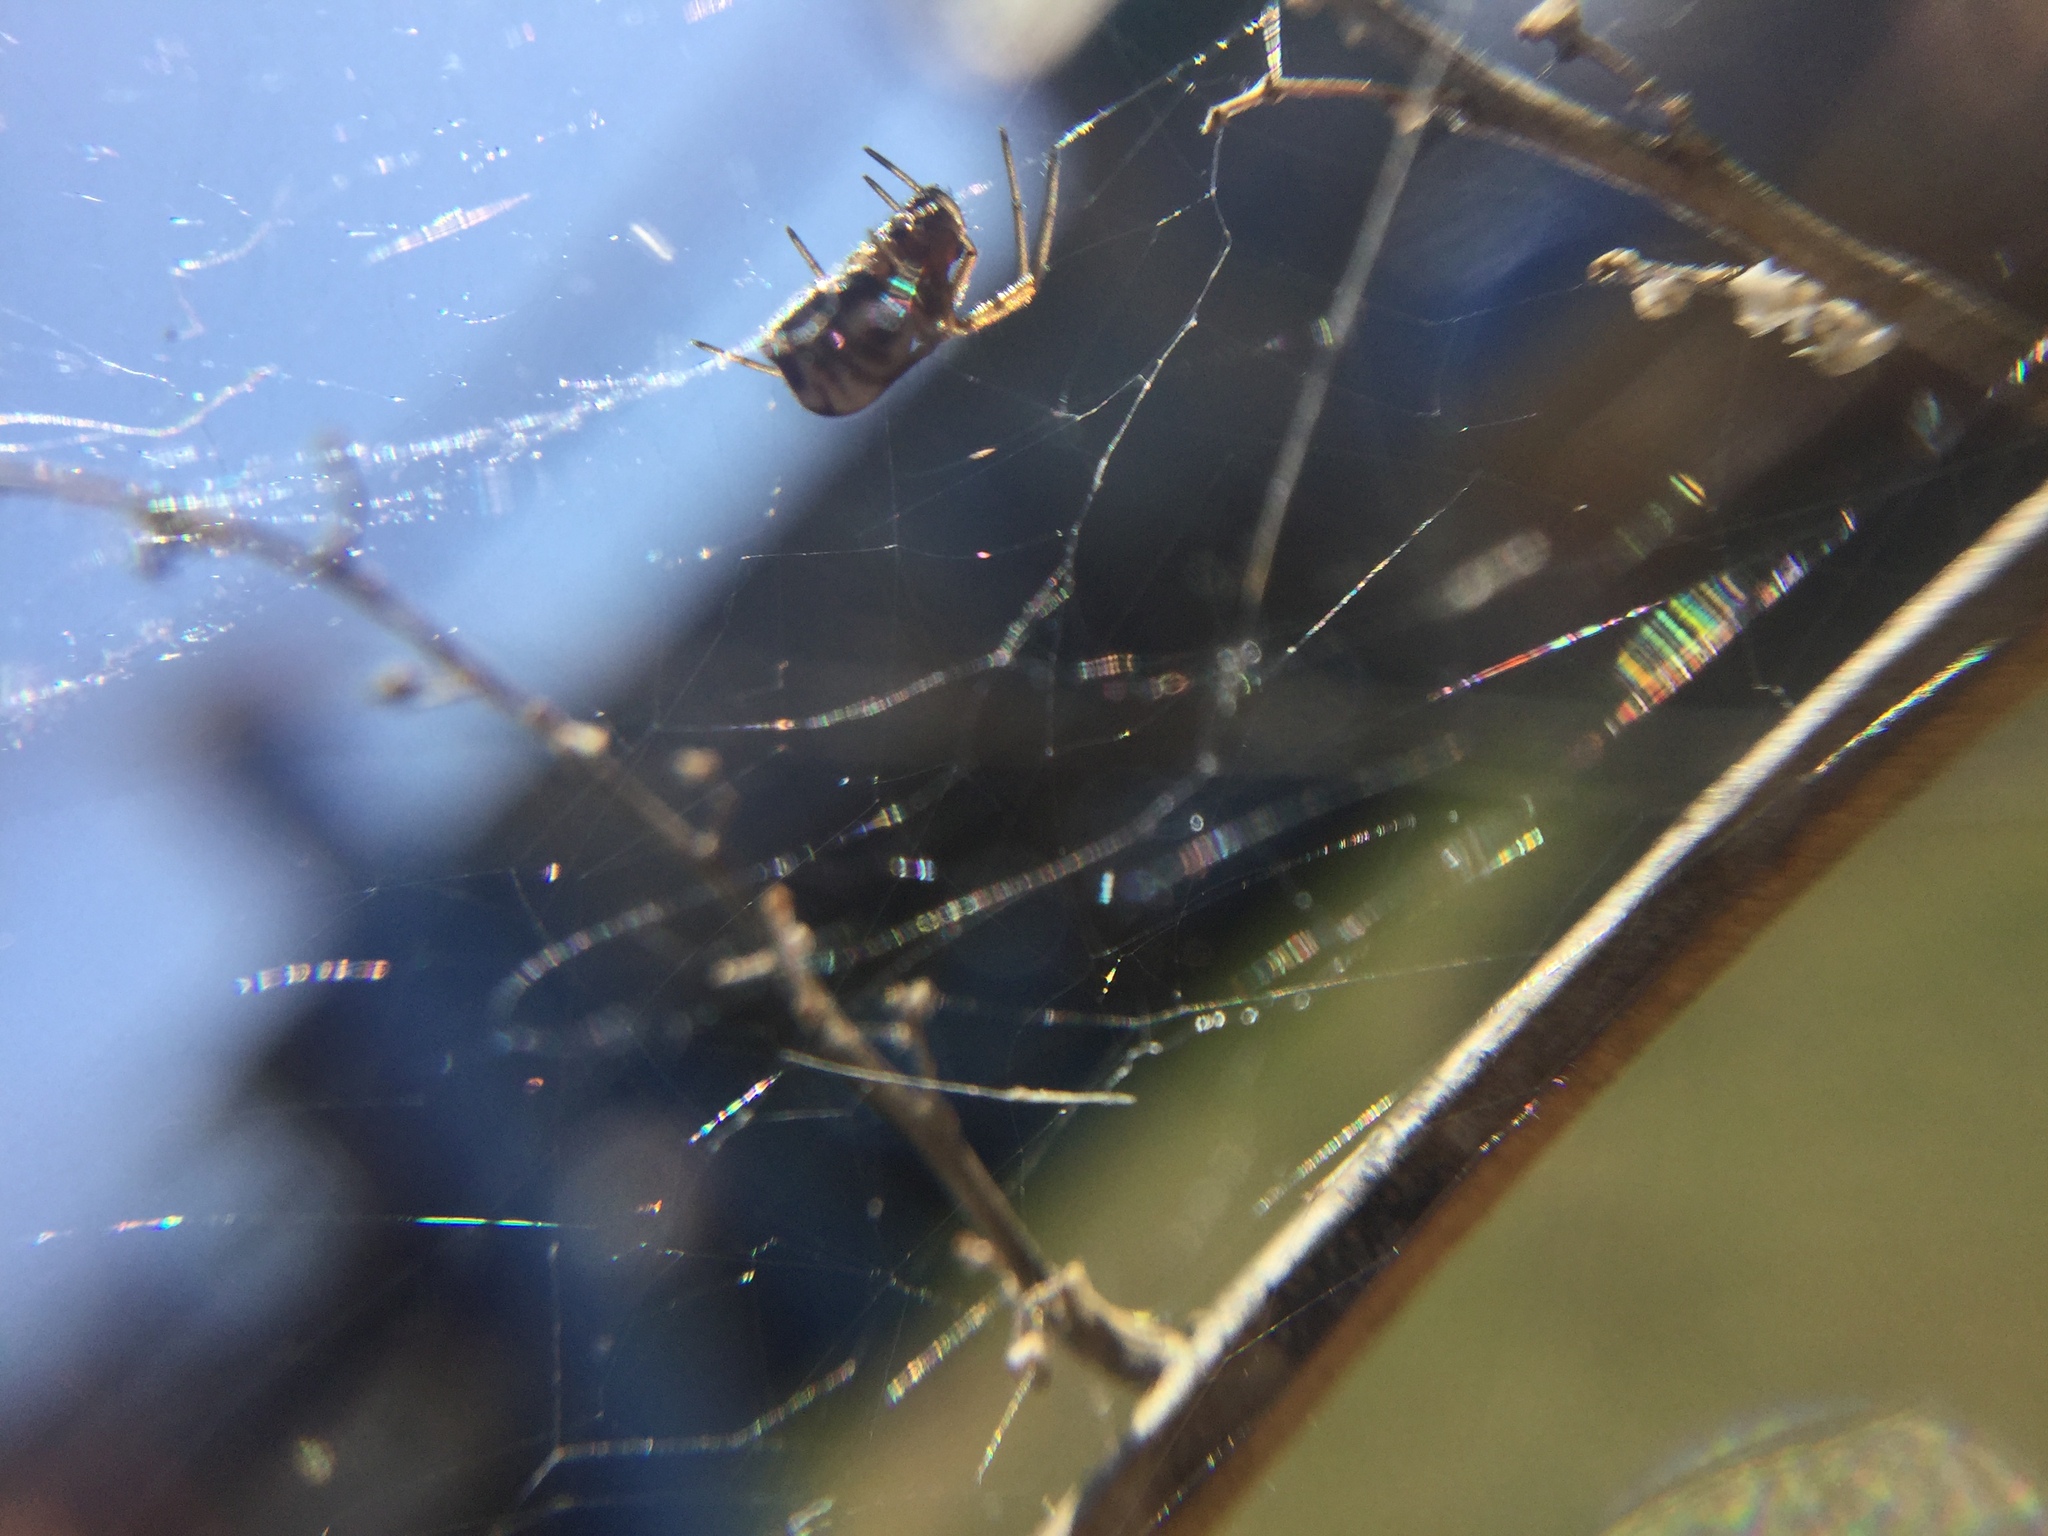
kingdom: Animalia
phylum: Arthropoda
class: Arachnida
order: Araneae
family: Linyphiidae
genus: Frontinella
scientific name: Frontinella pyramitela
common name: Bowl-and-doily spider
